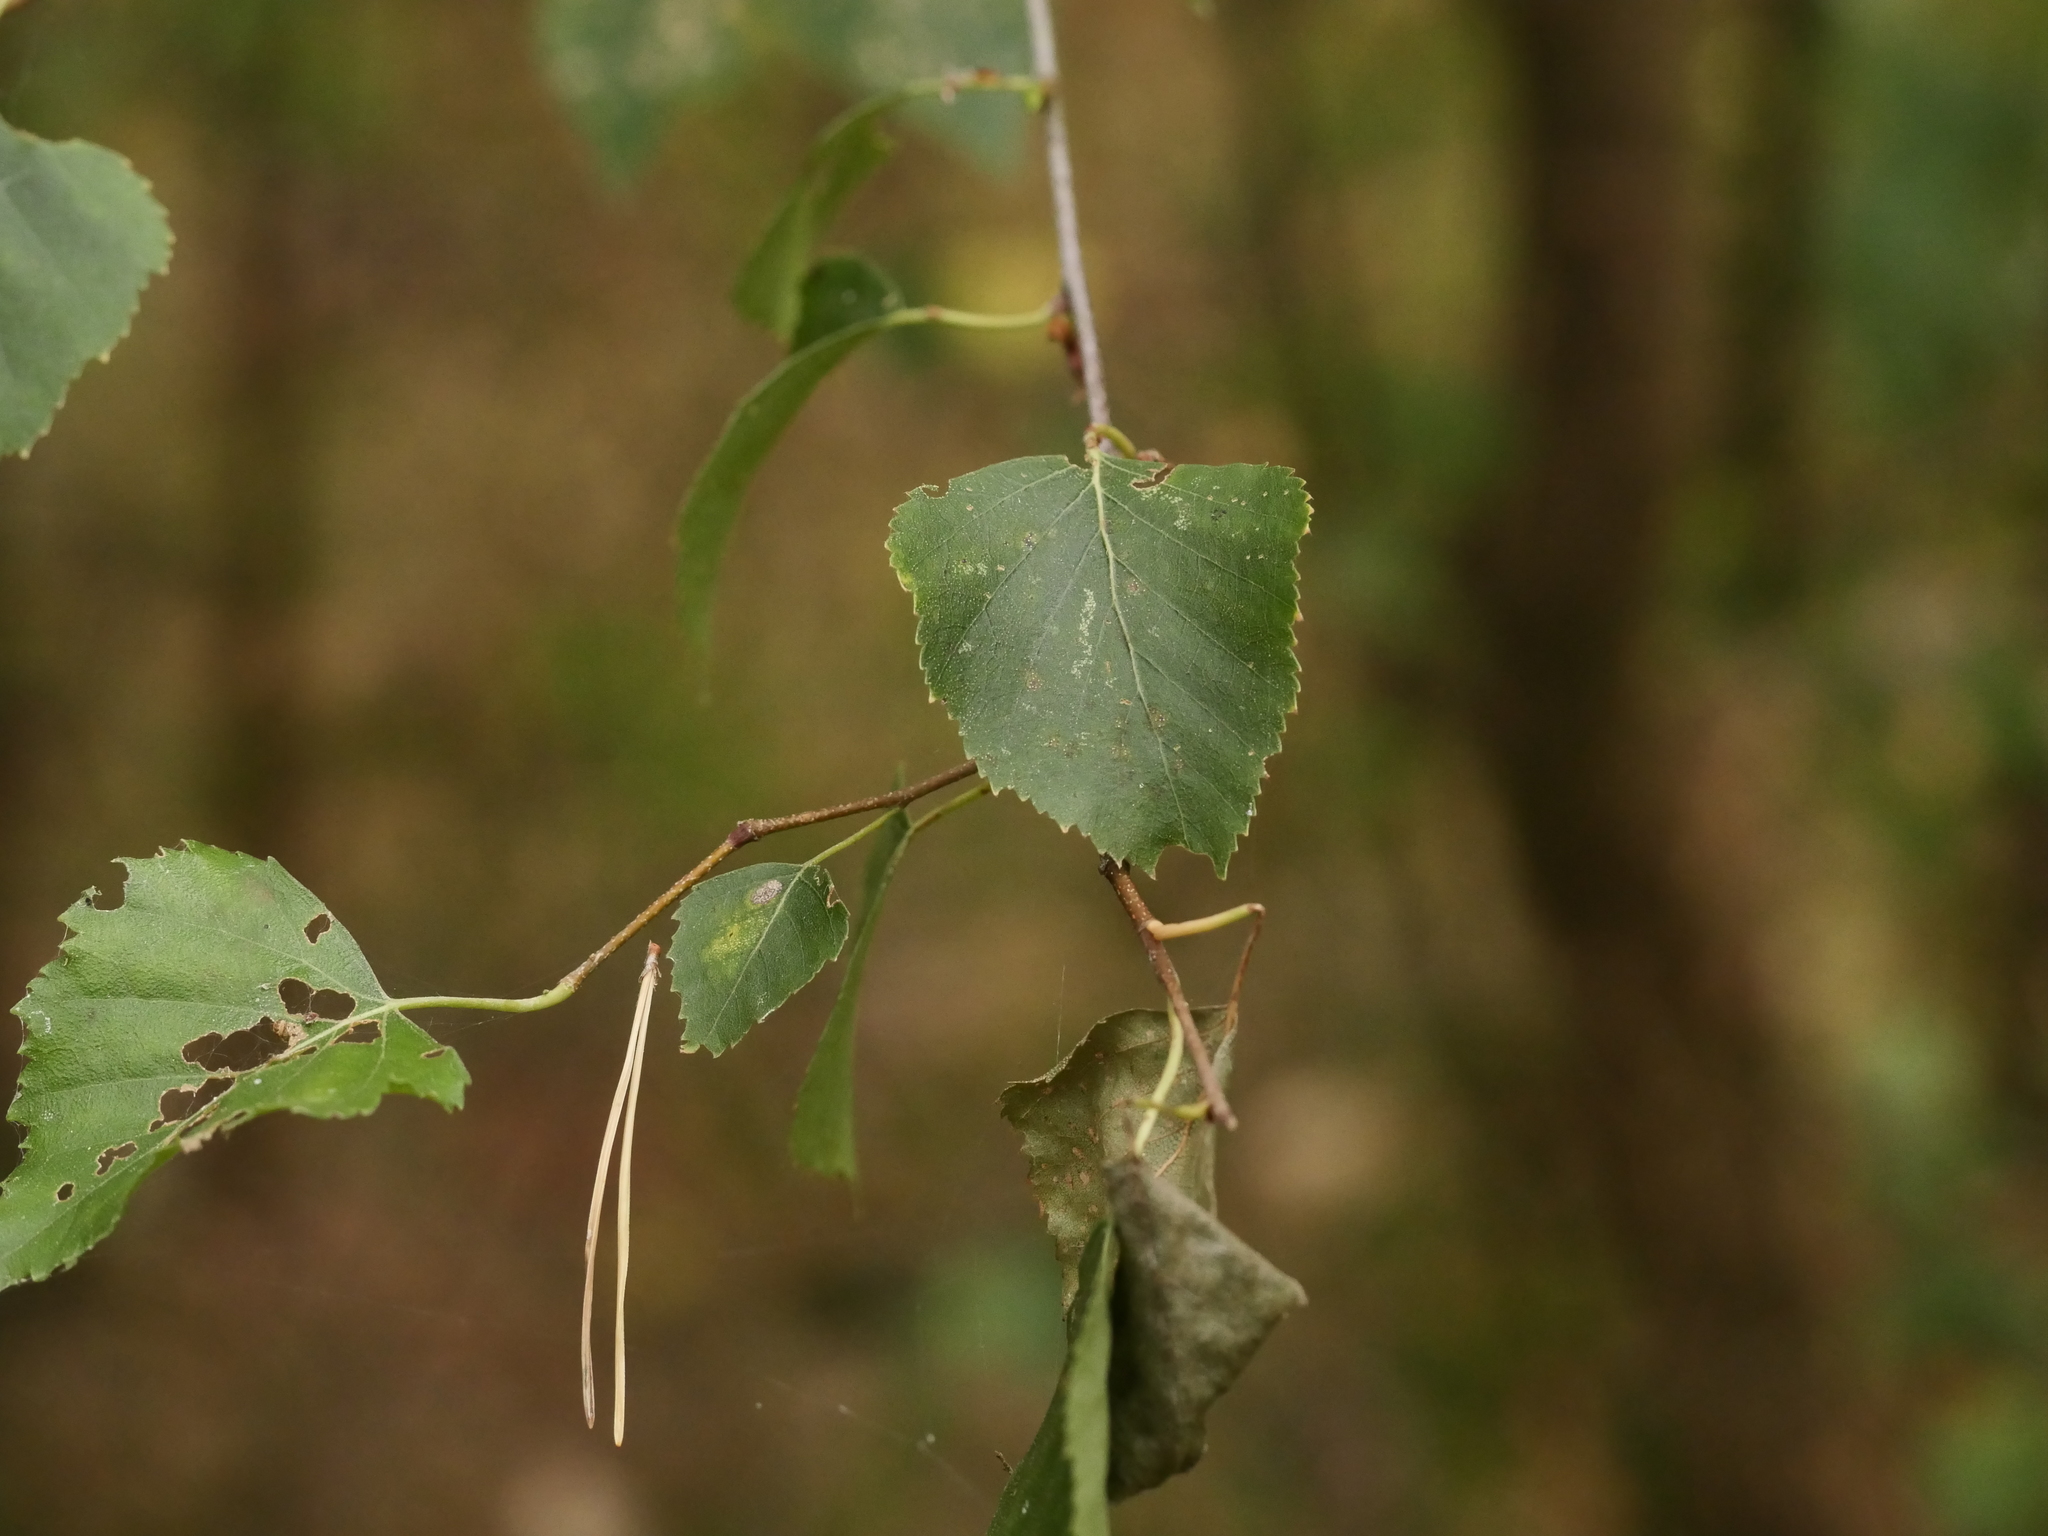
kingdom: Plantae
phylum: Tracheophyta
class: Magnoliopsida
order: Fagales
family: Betulaceae
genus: Betula
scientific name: Betula pendula
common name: Silver birch
